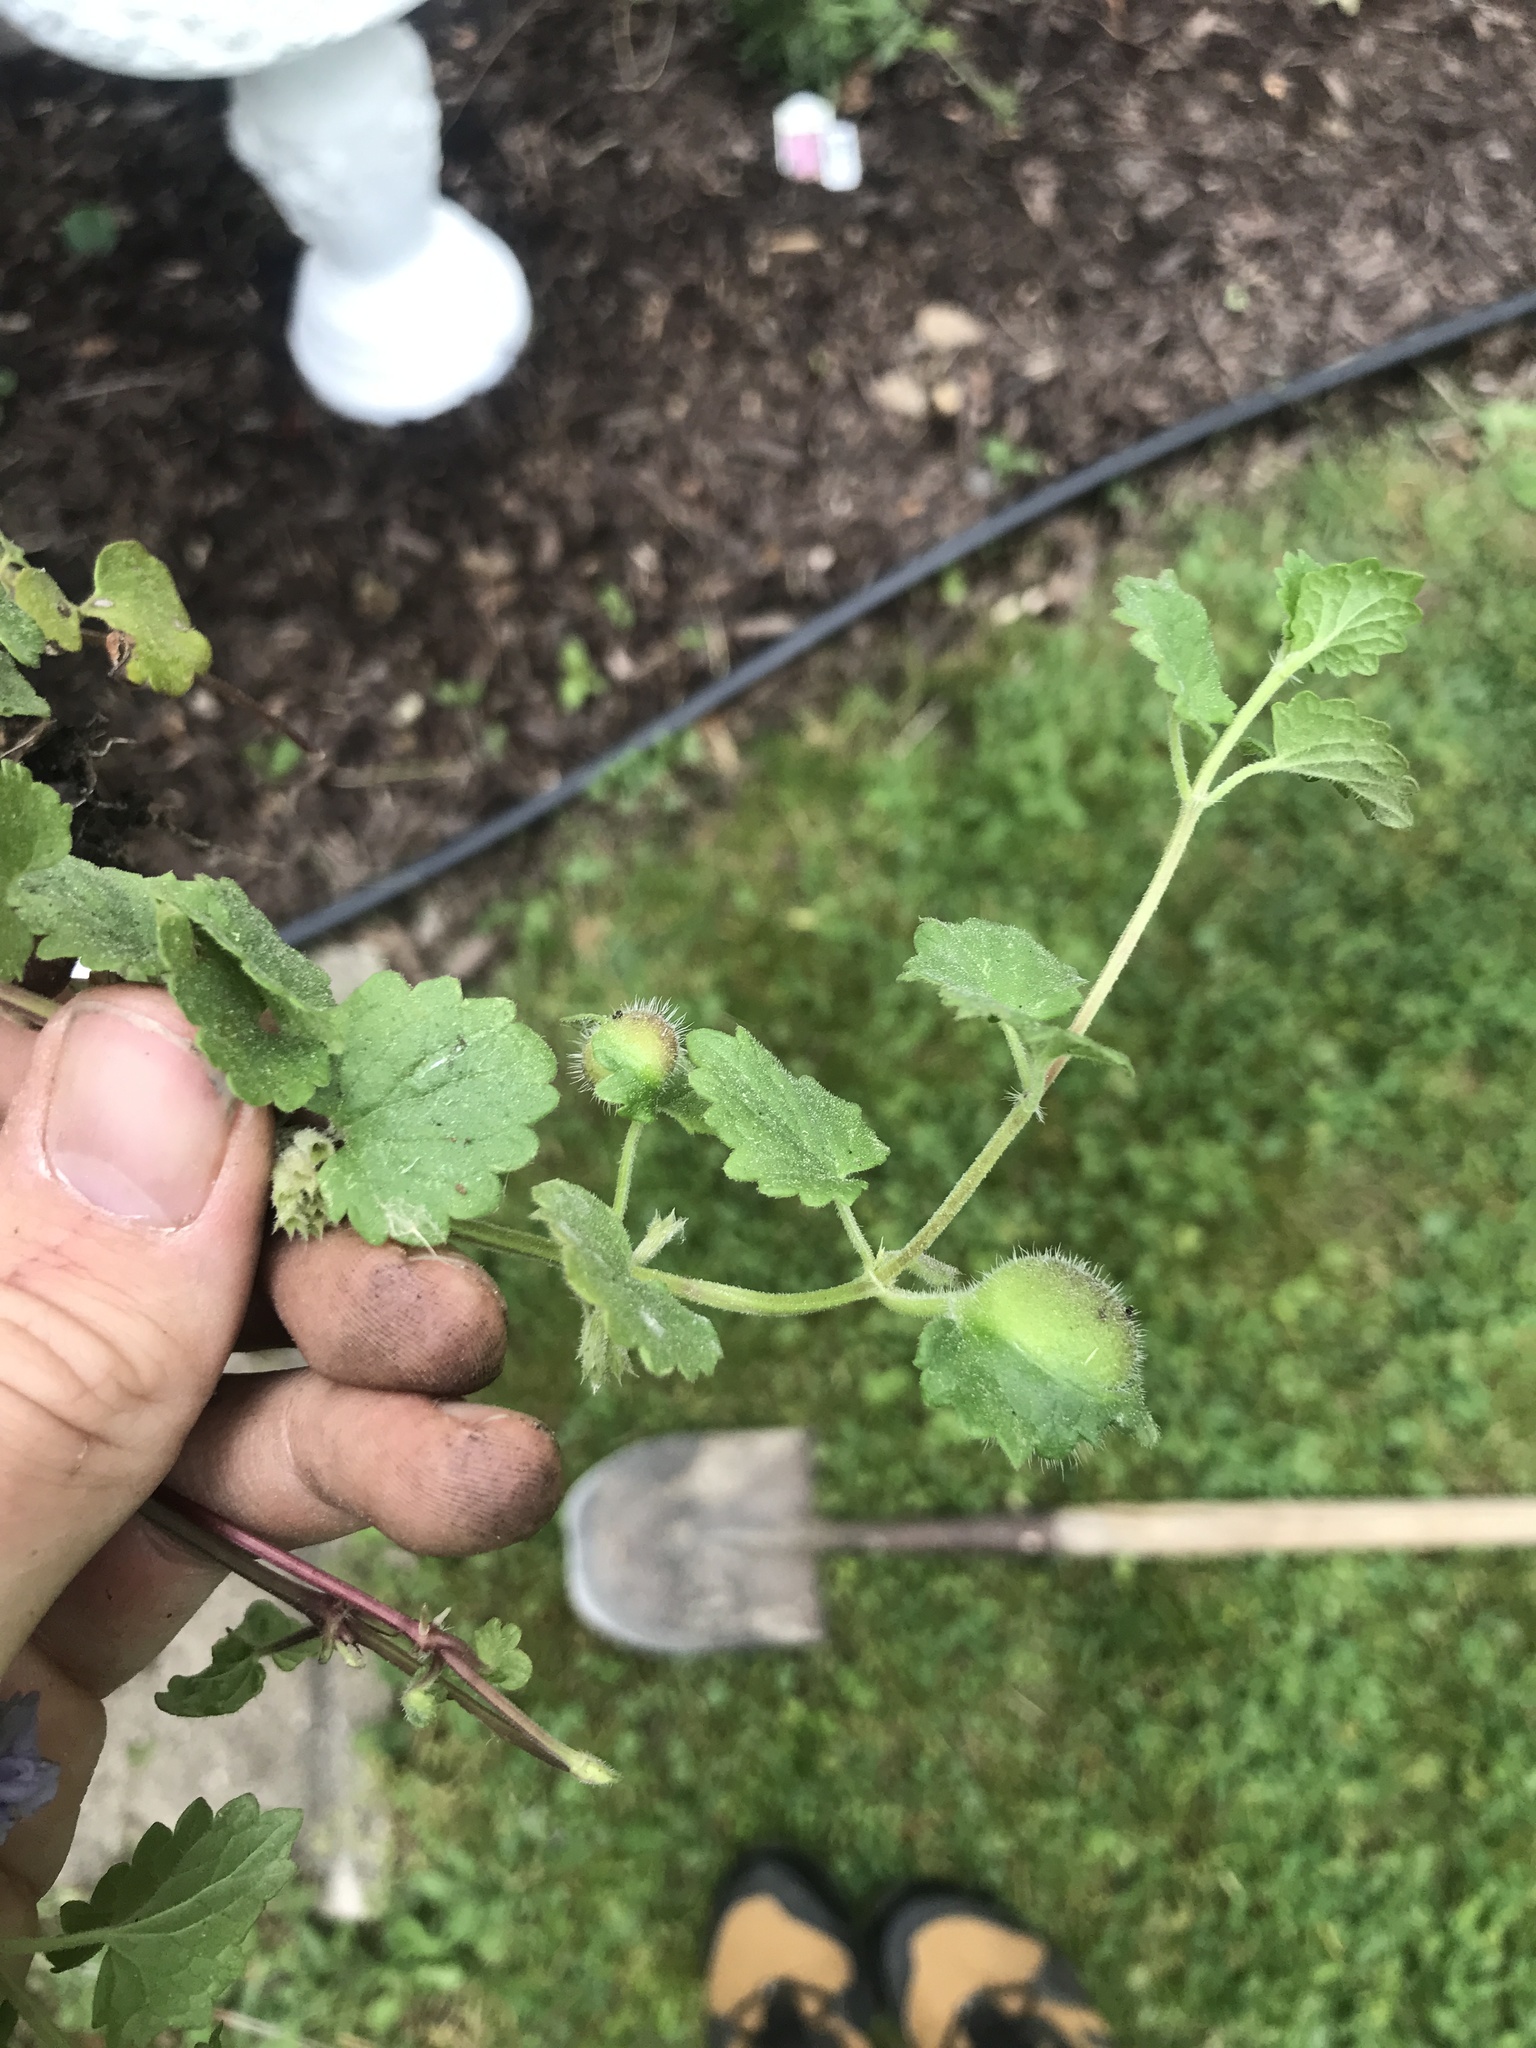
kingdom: Animalia
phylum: Arthropoda
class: Insecta
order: Hymenoptera
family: Cynipidae
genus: Liposthenes
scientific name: Liposthenes glechomae
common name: Gall wasp
